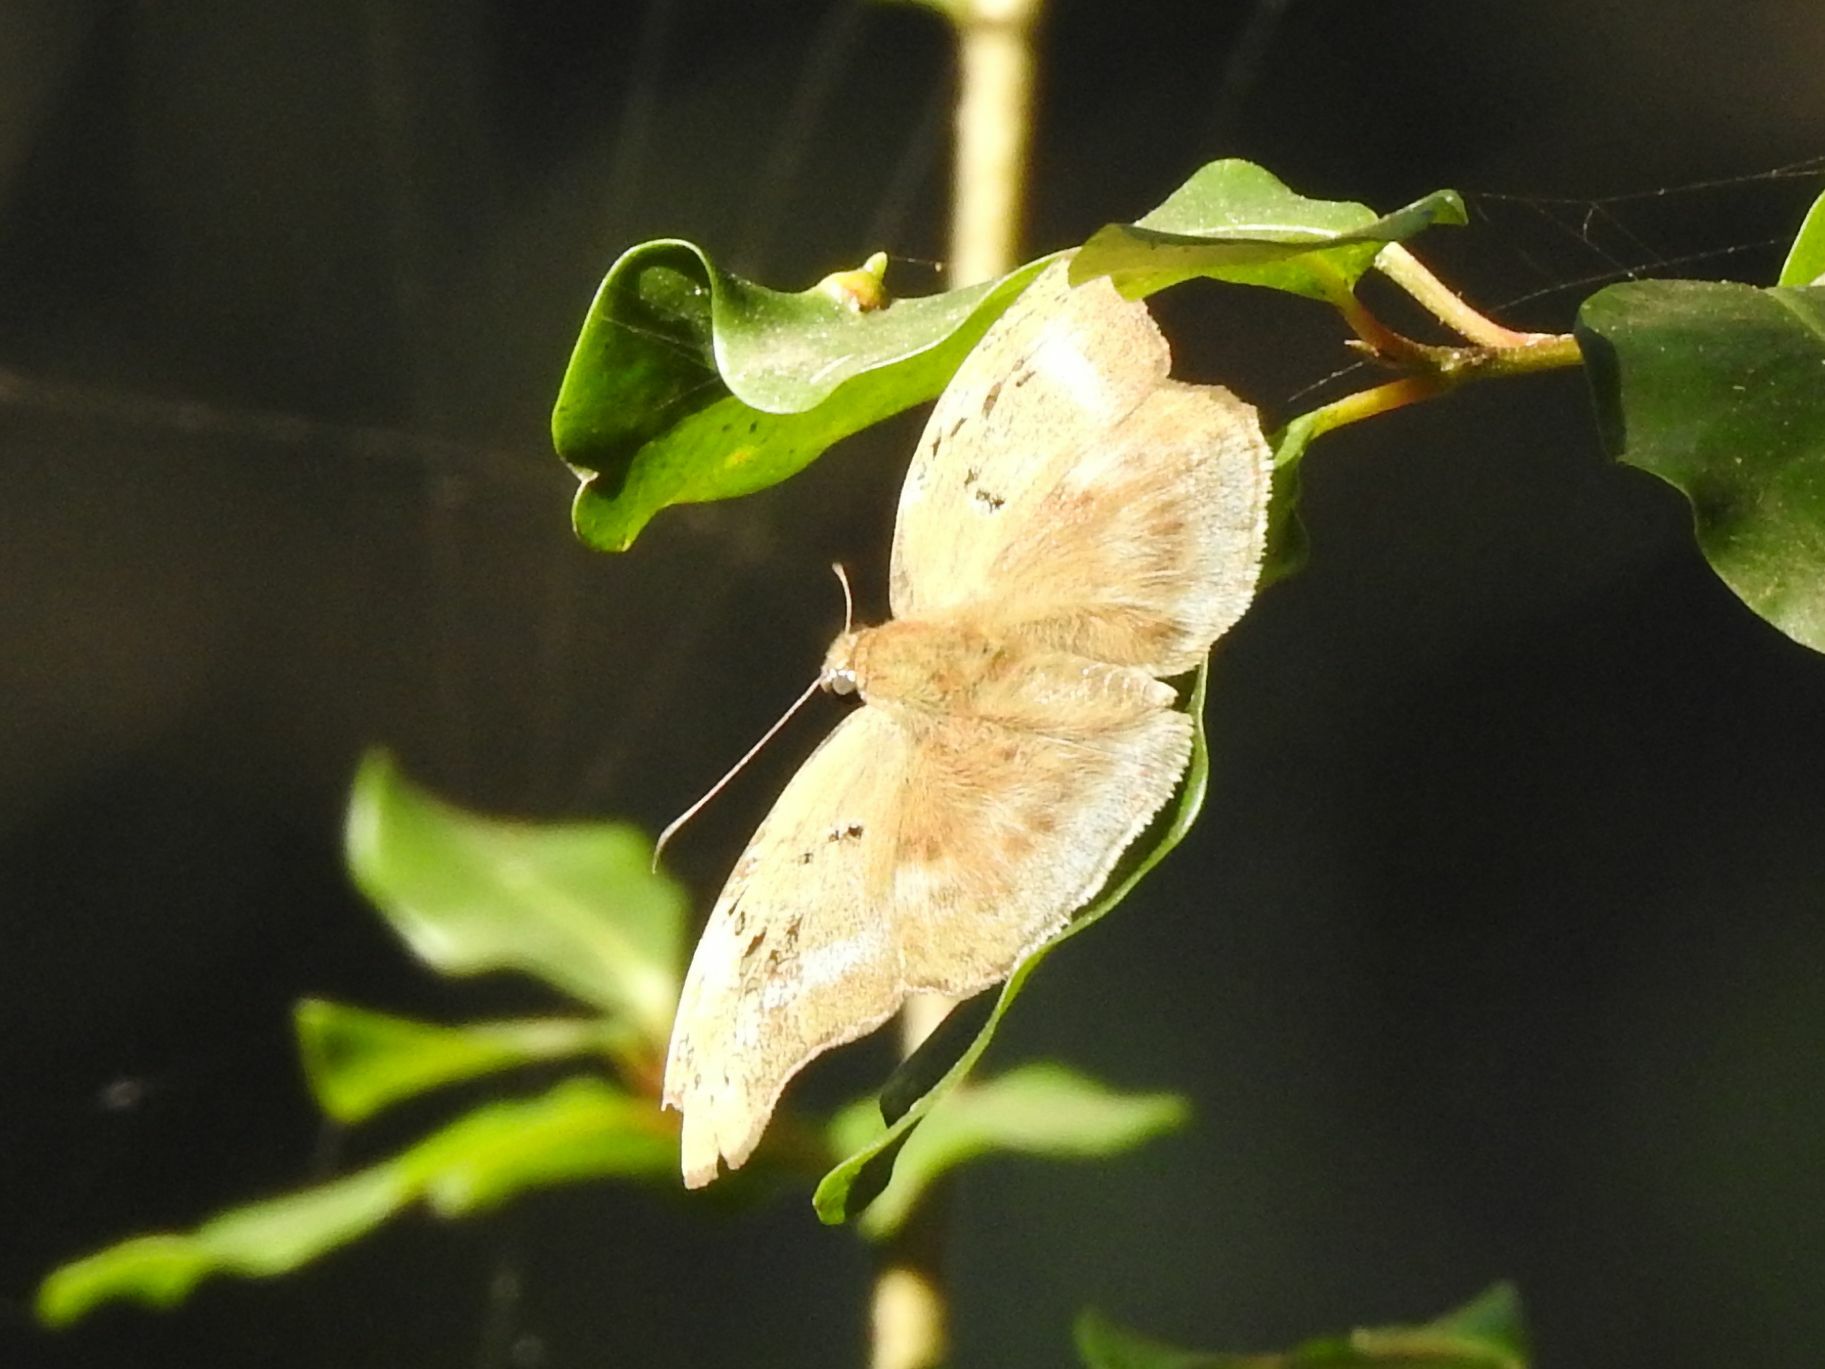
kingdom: Animalia
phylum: Arthropoda
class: Insecta
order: Lepidoptera
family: Hesperiidae
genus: Tagiades
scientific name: Tagiades flesus
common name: Clouded flat
